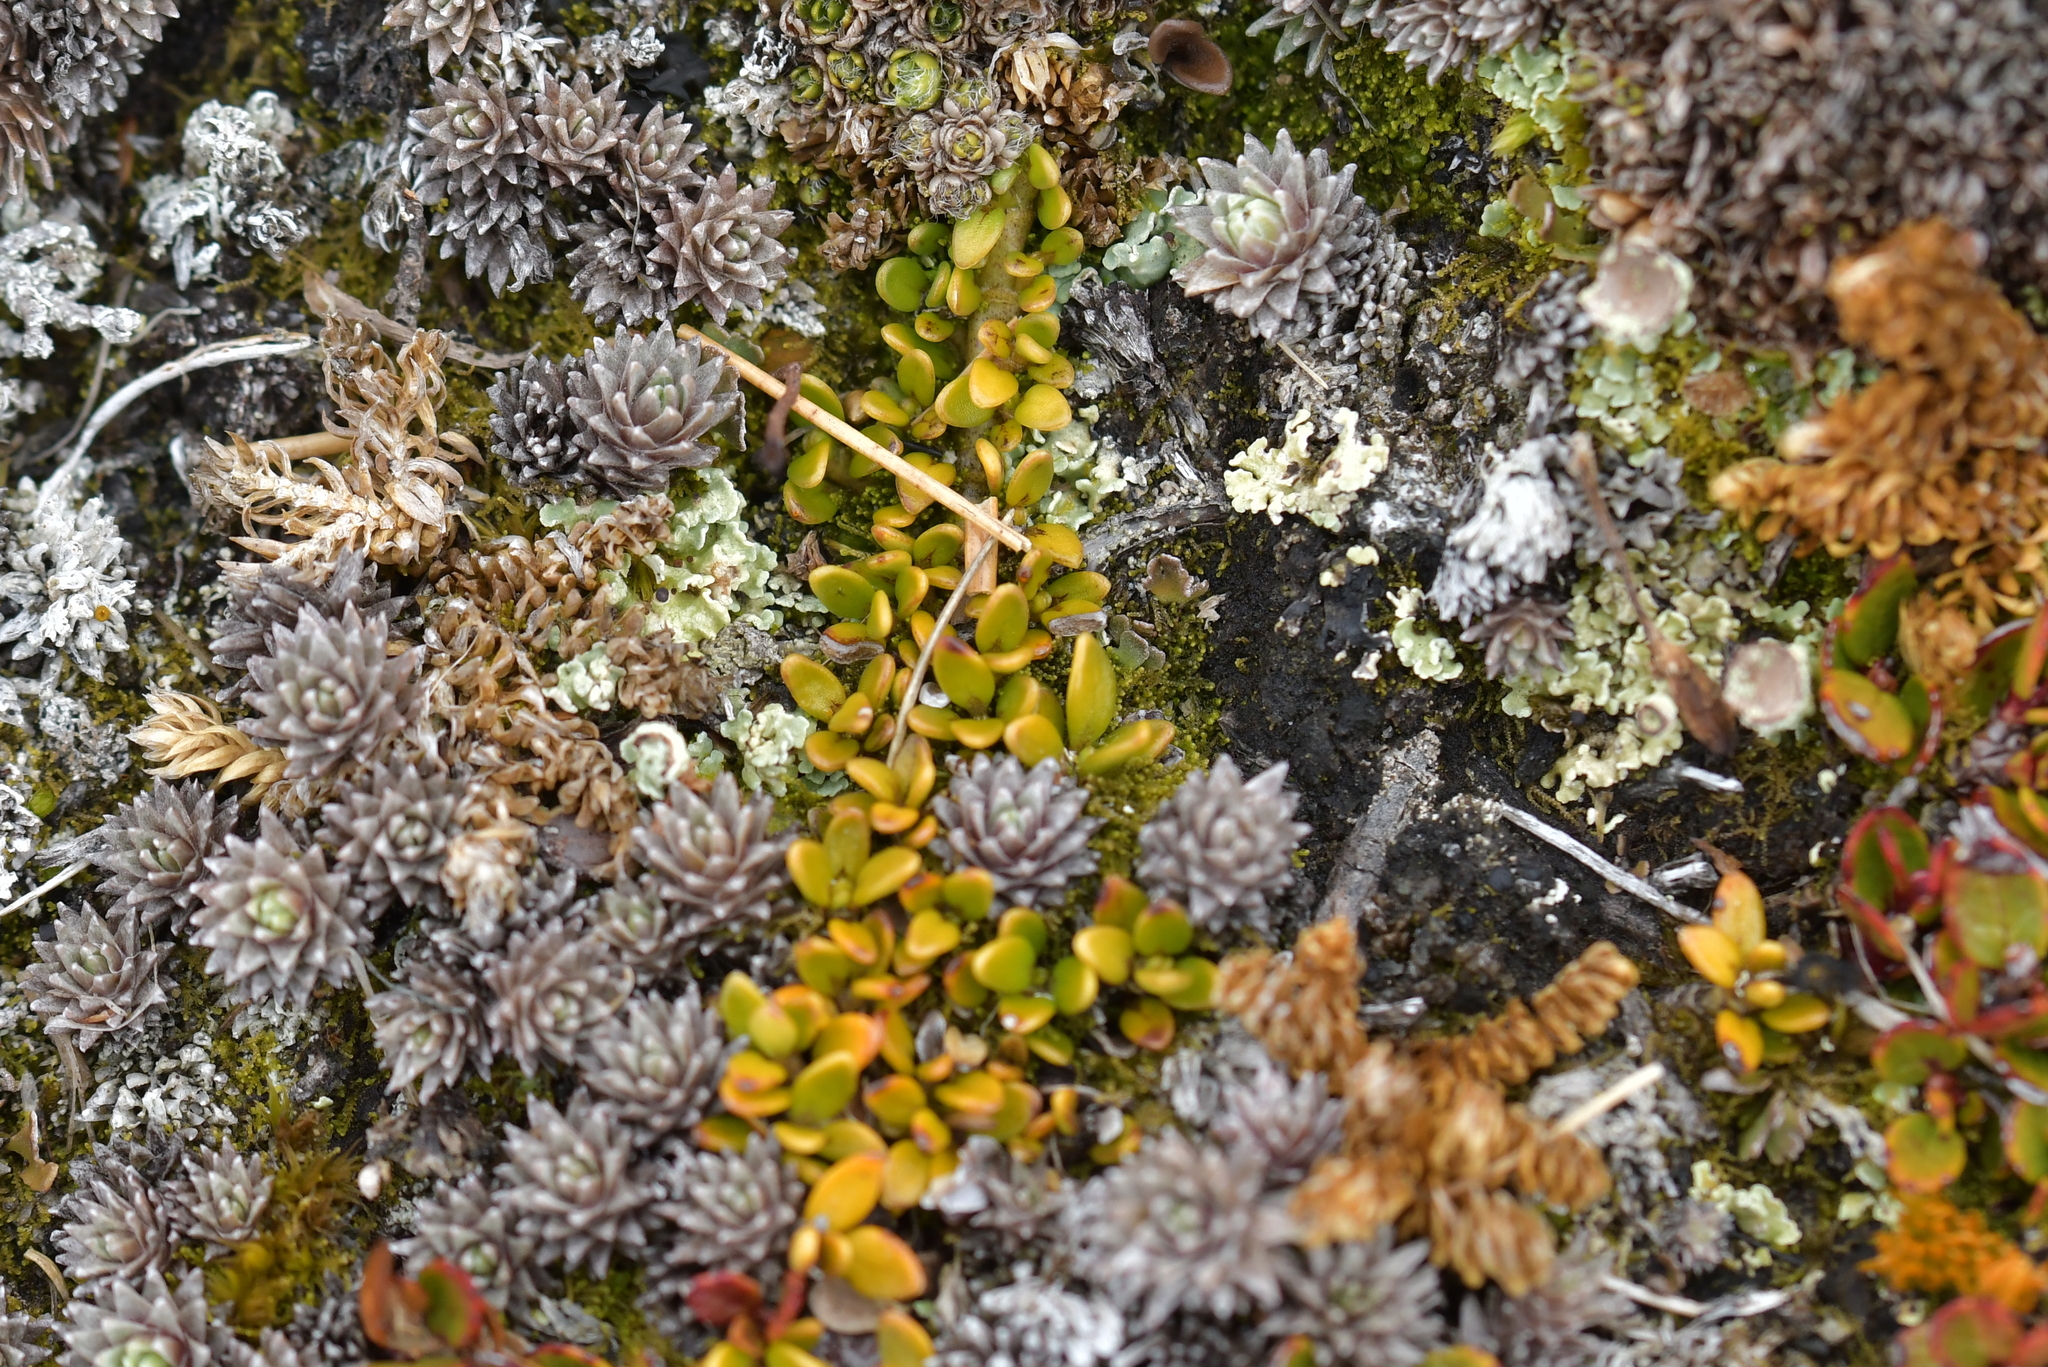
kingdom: Plantae
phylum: Tracheophyta
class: Magnoliopsida
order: Gentianales
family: Rubiaceae
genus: Coprosma
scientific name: Coprosma perpusilla
